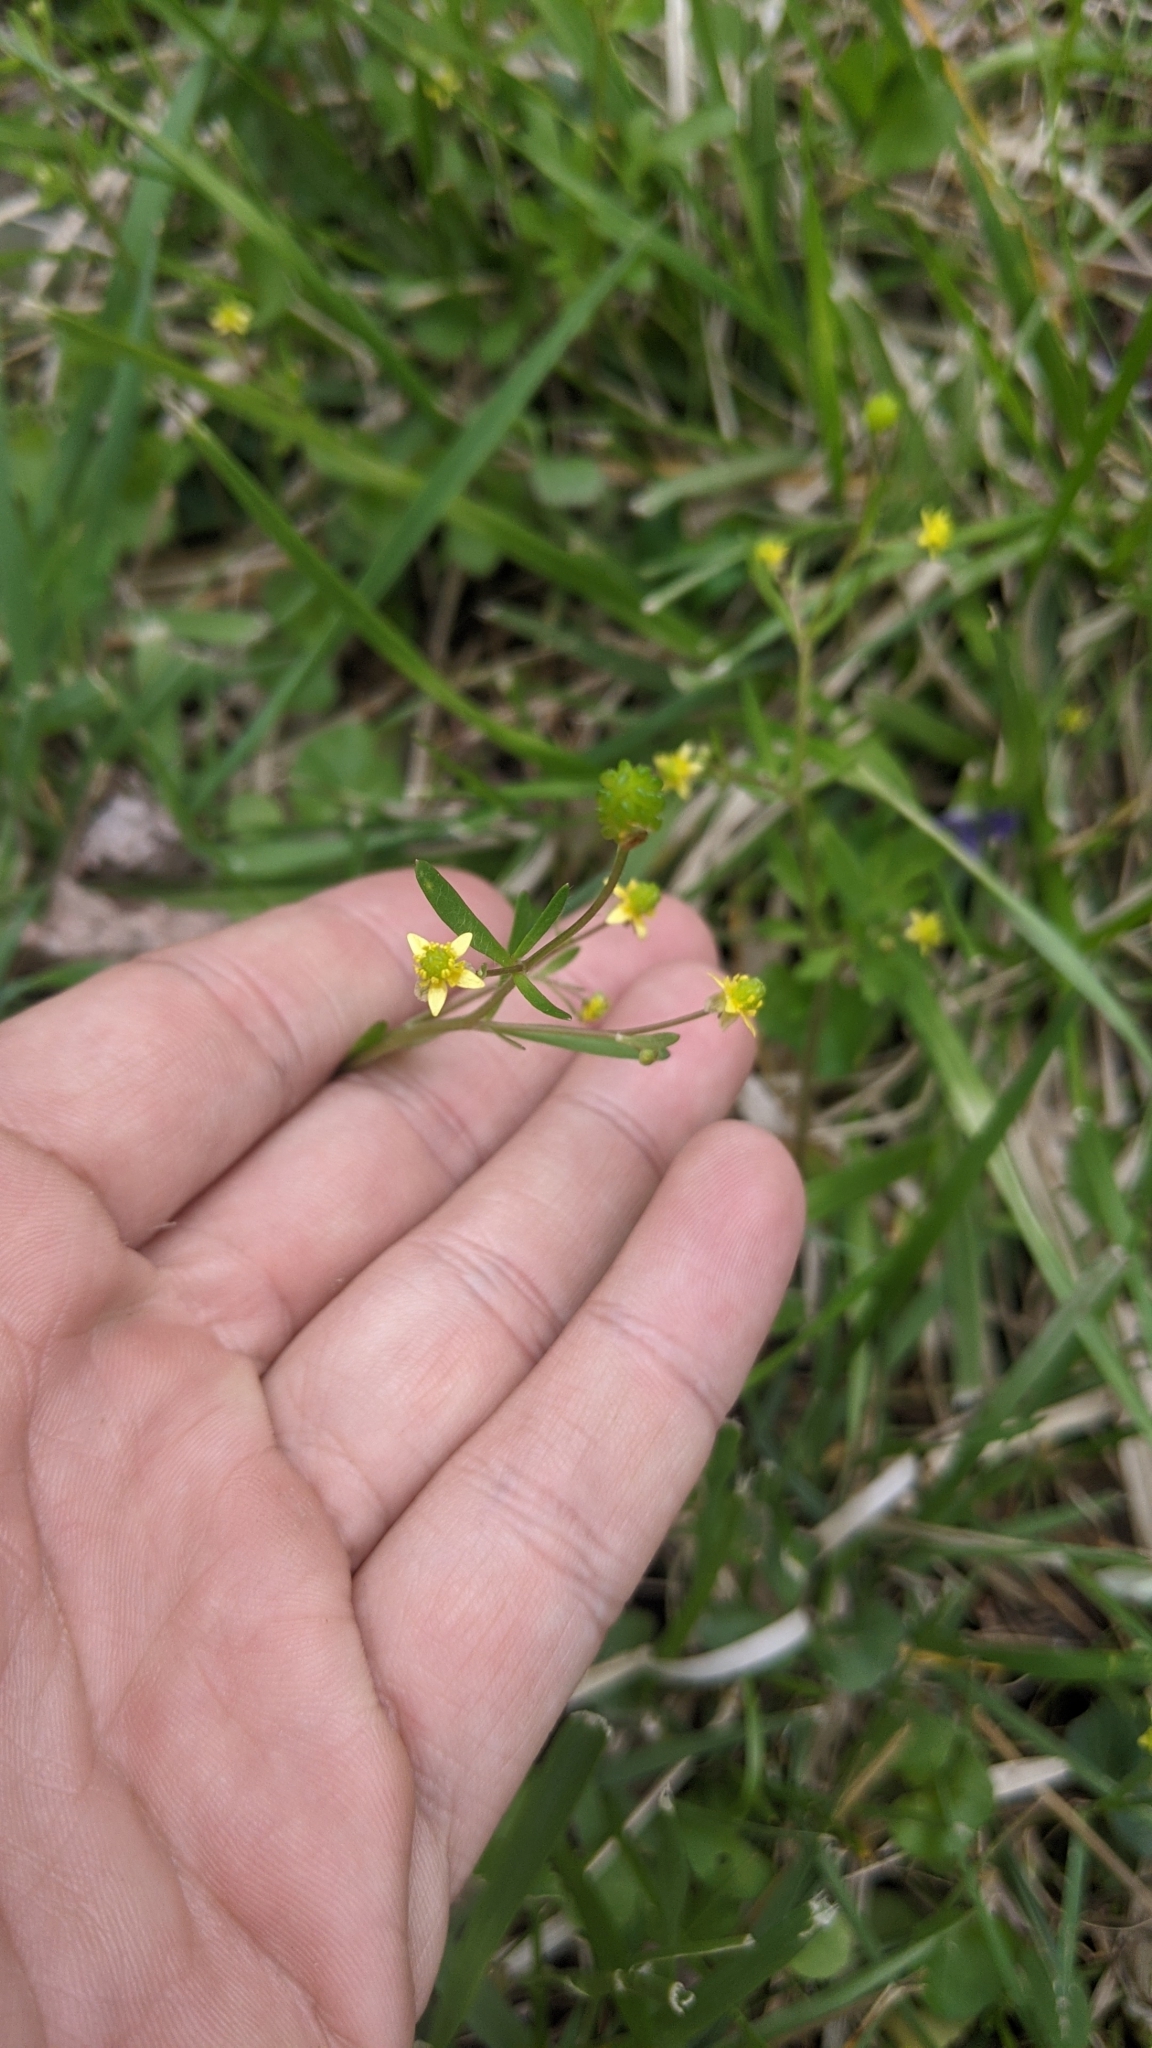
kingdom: Plantae
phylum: Tracheophyta
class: Magnoliopsida
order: Ranunculales
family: Ranunculaceae
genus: Ranunculus
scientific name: Ranunculus abortivus
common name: Early wood buttercup
